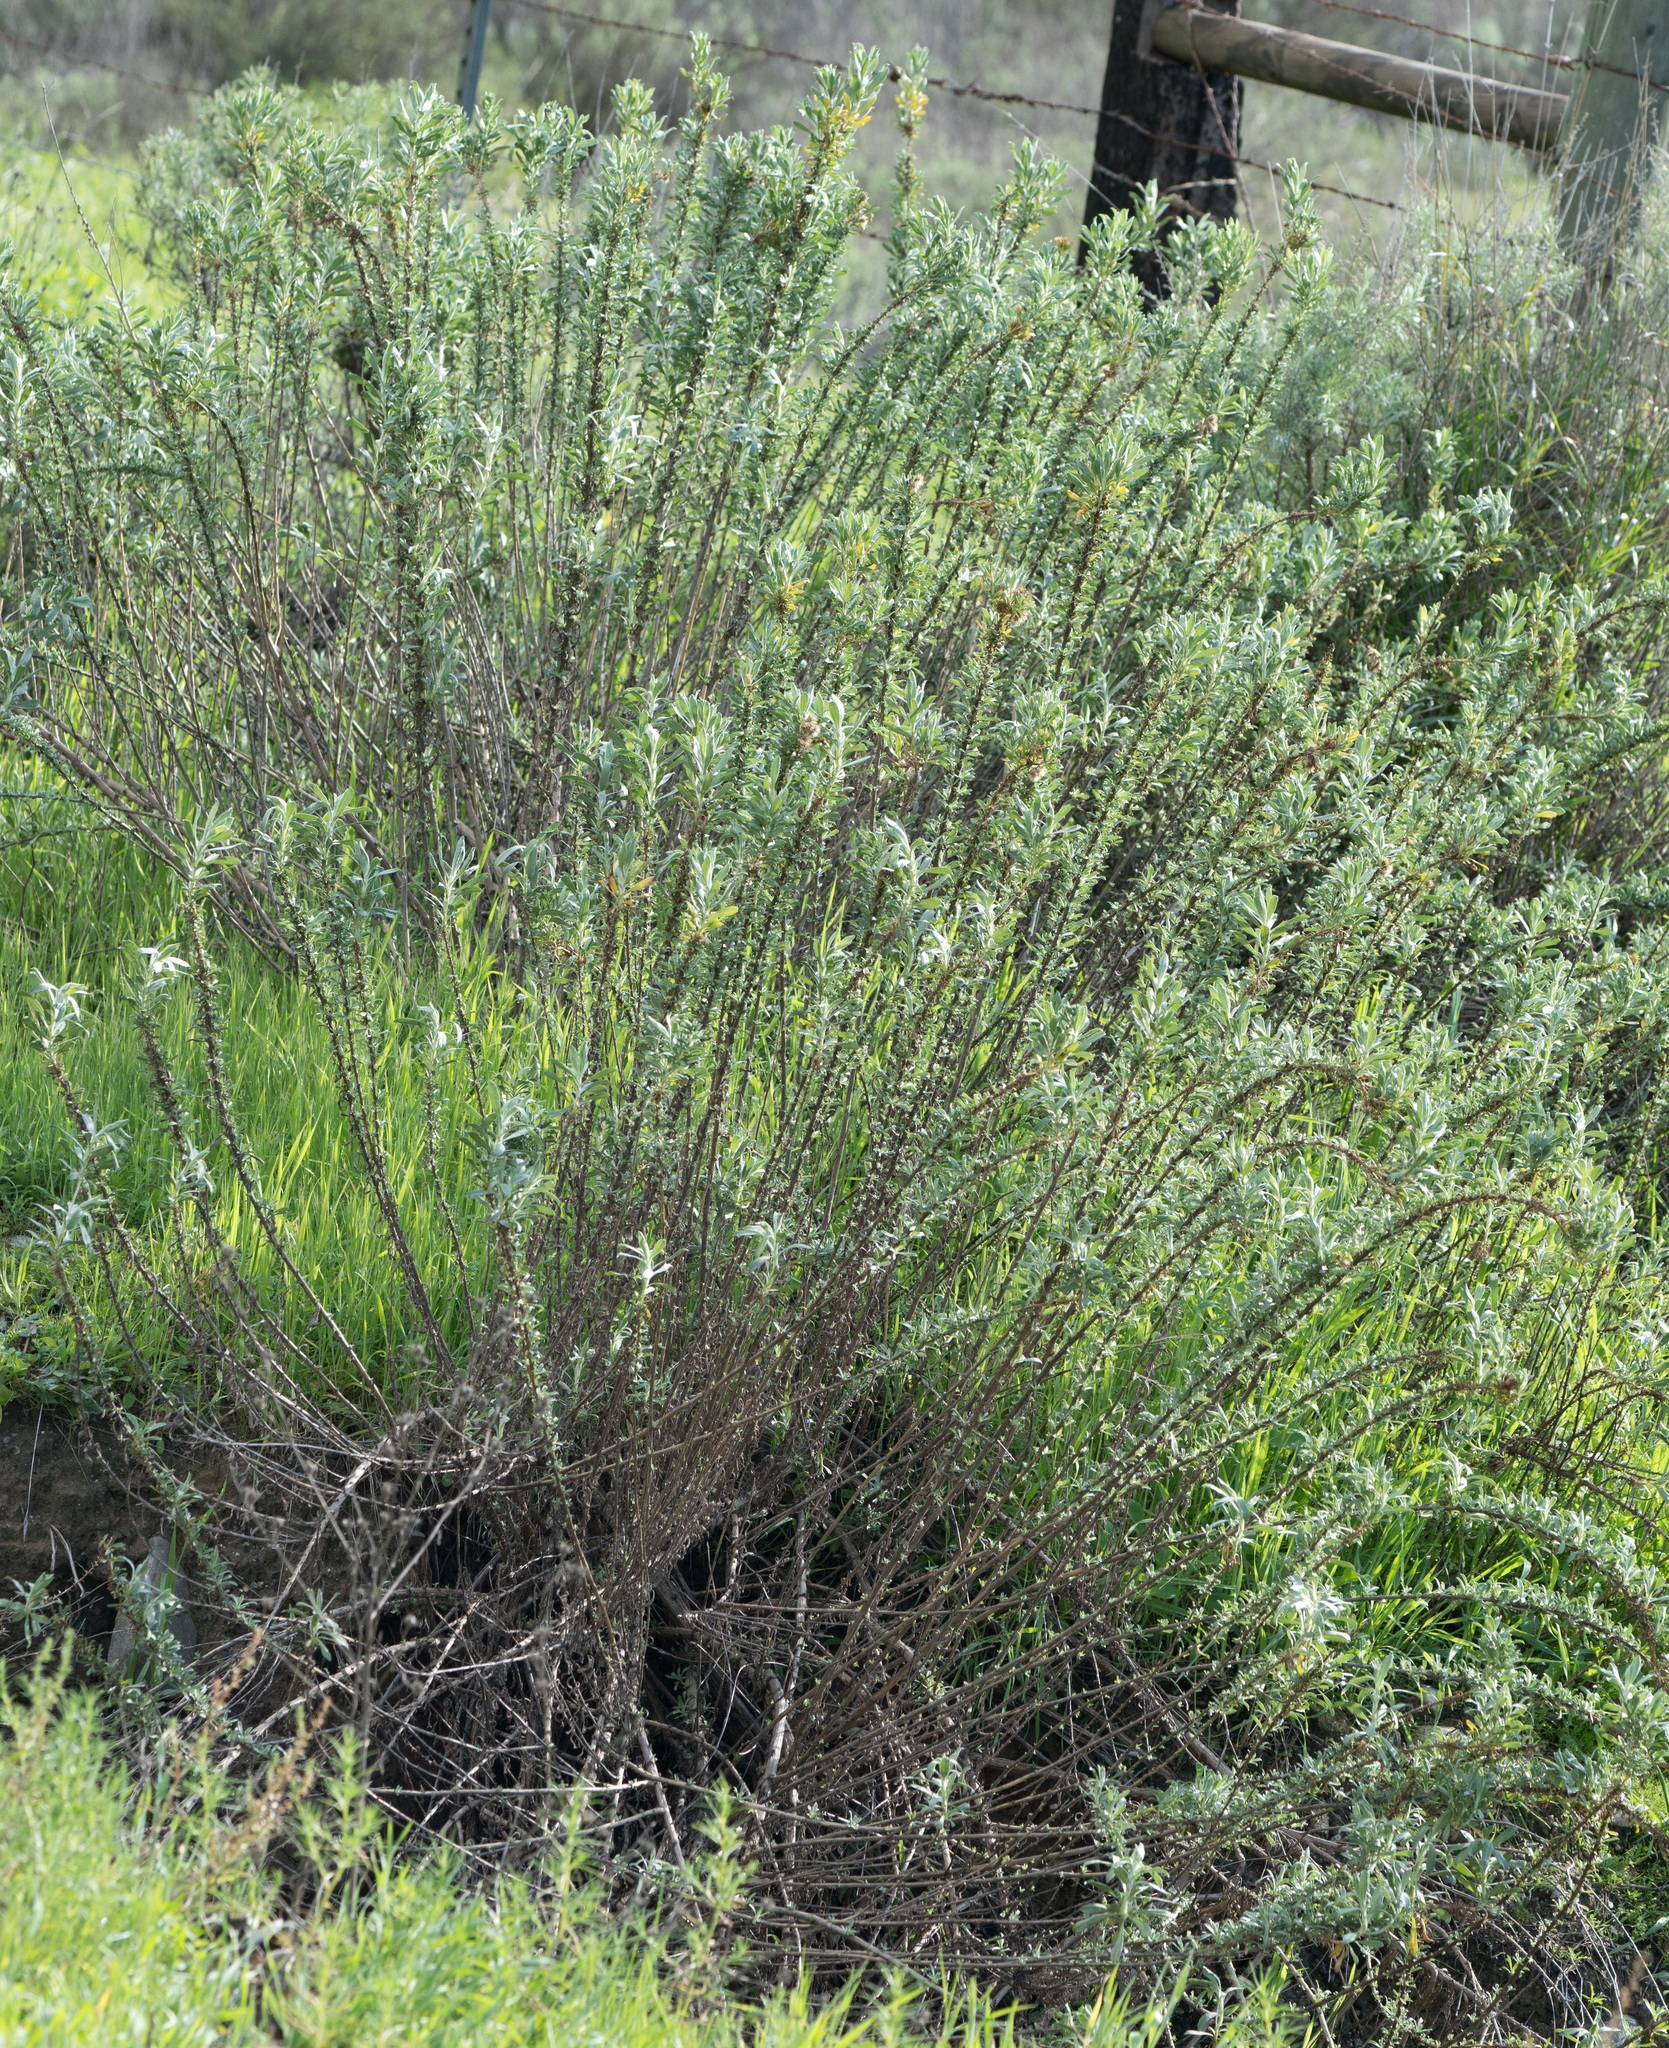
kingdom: Plantae
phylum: Tracheophyta
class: Magnoliopsida
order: Asterales
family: Asteraceae
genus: Isocoma
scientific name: Isocoma menziesii
